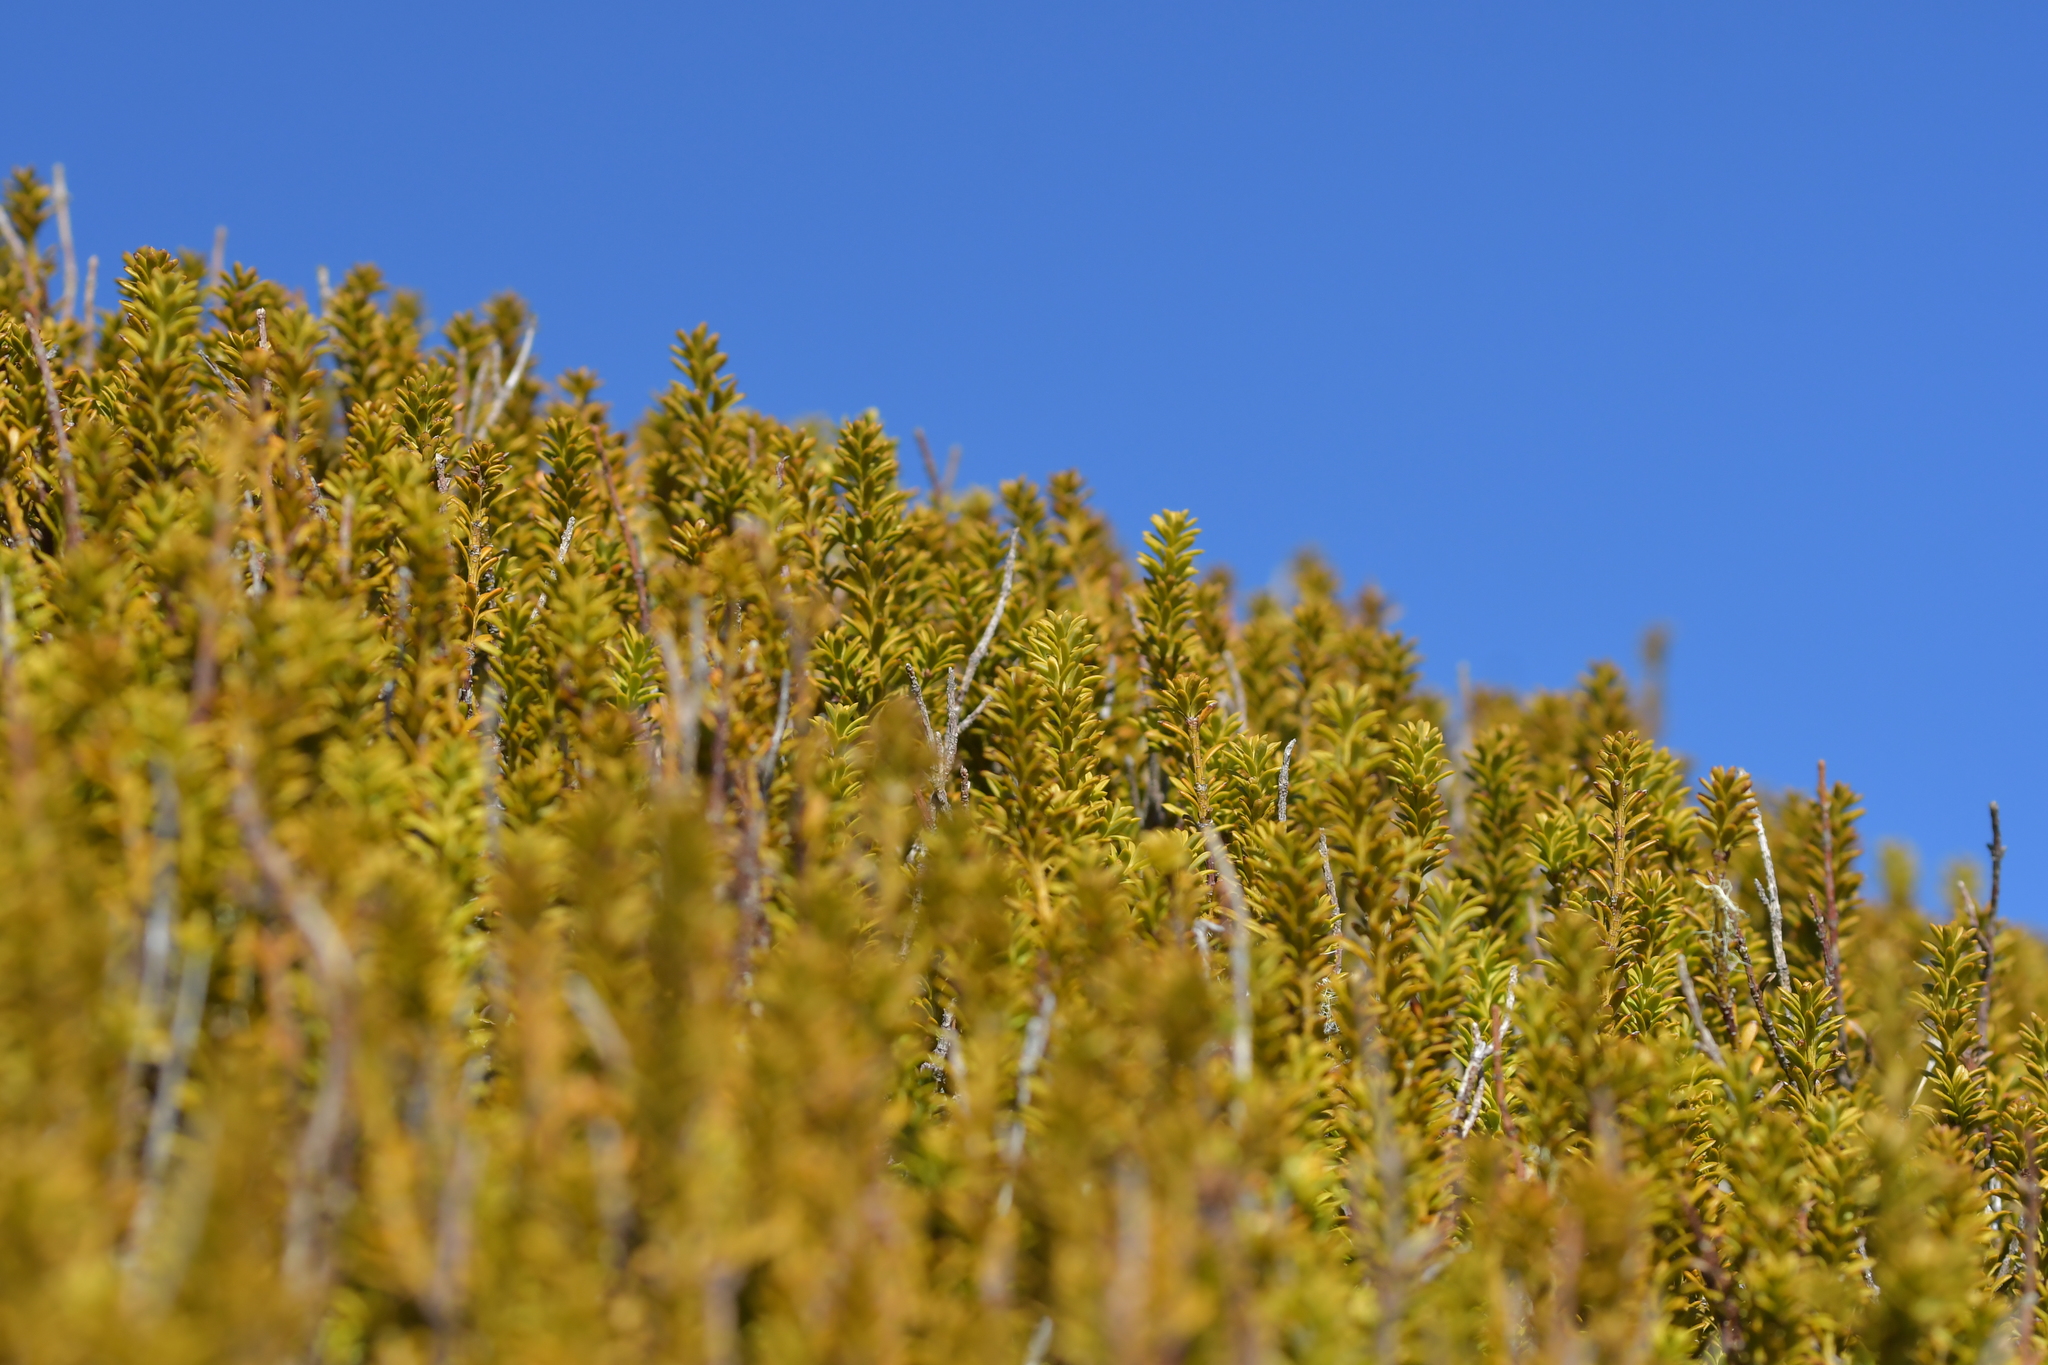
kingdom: Plantae
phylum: Tracheophyta
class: Pinopsida
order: Pinales
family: Podocarpaceae
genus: Podocarpus
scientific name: Podocarpus nivalis
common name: Alpine totara
